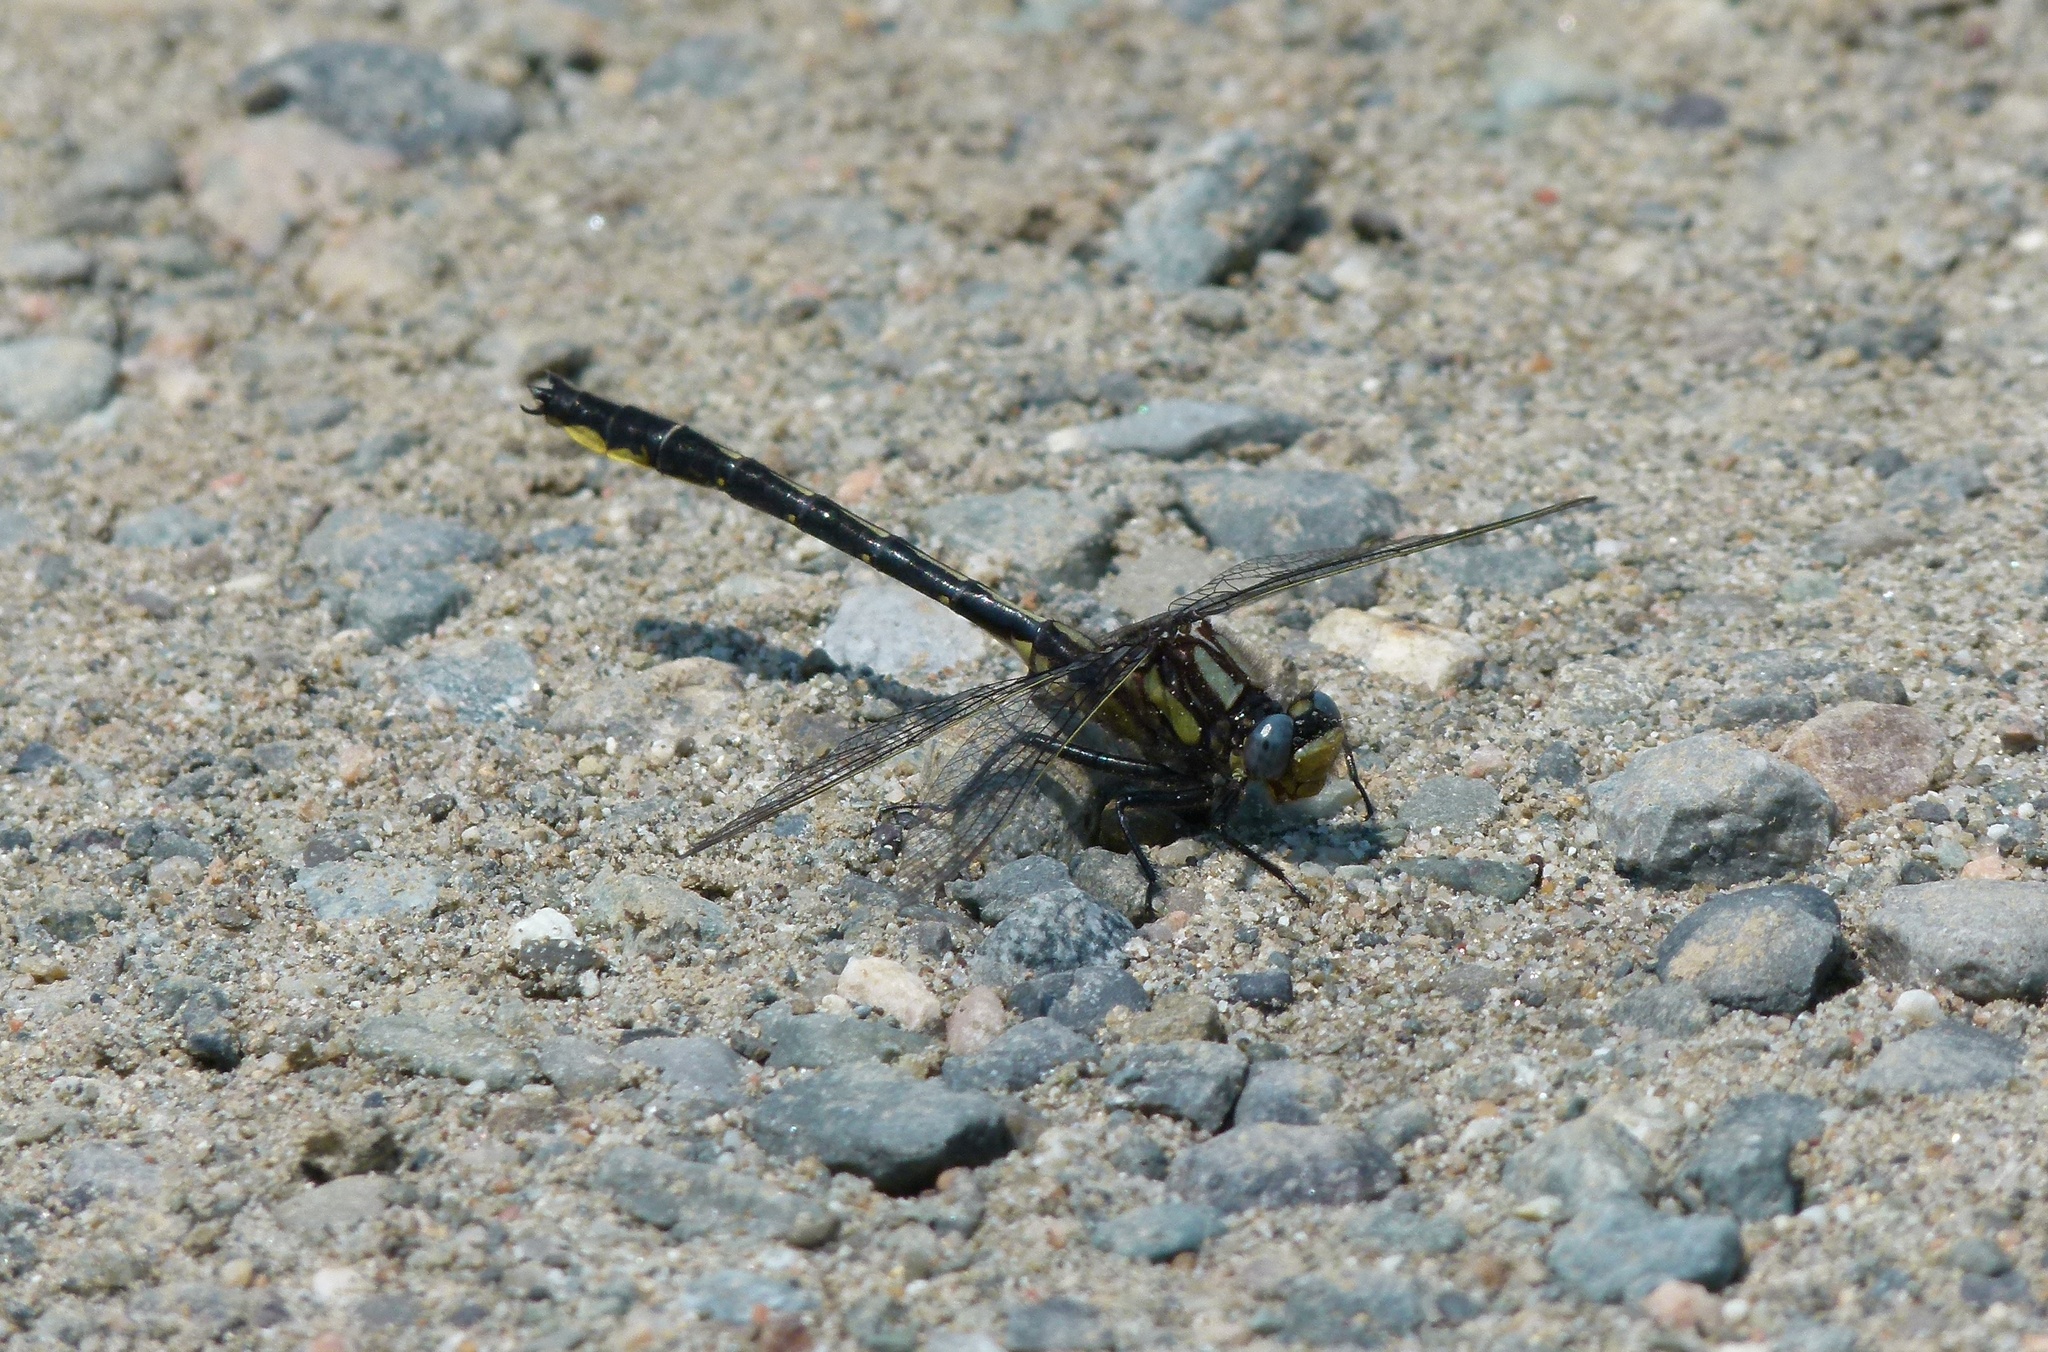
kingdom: Animalia
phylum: Arthropoda
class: Insecta
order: Odonata
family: Gomphidae
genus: Phanogomphus
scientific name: Phanogomphus borealis
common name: Beaverpond clubtail
